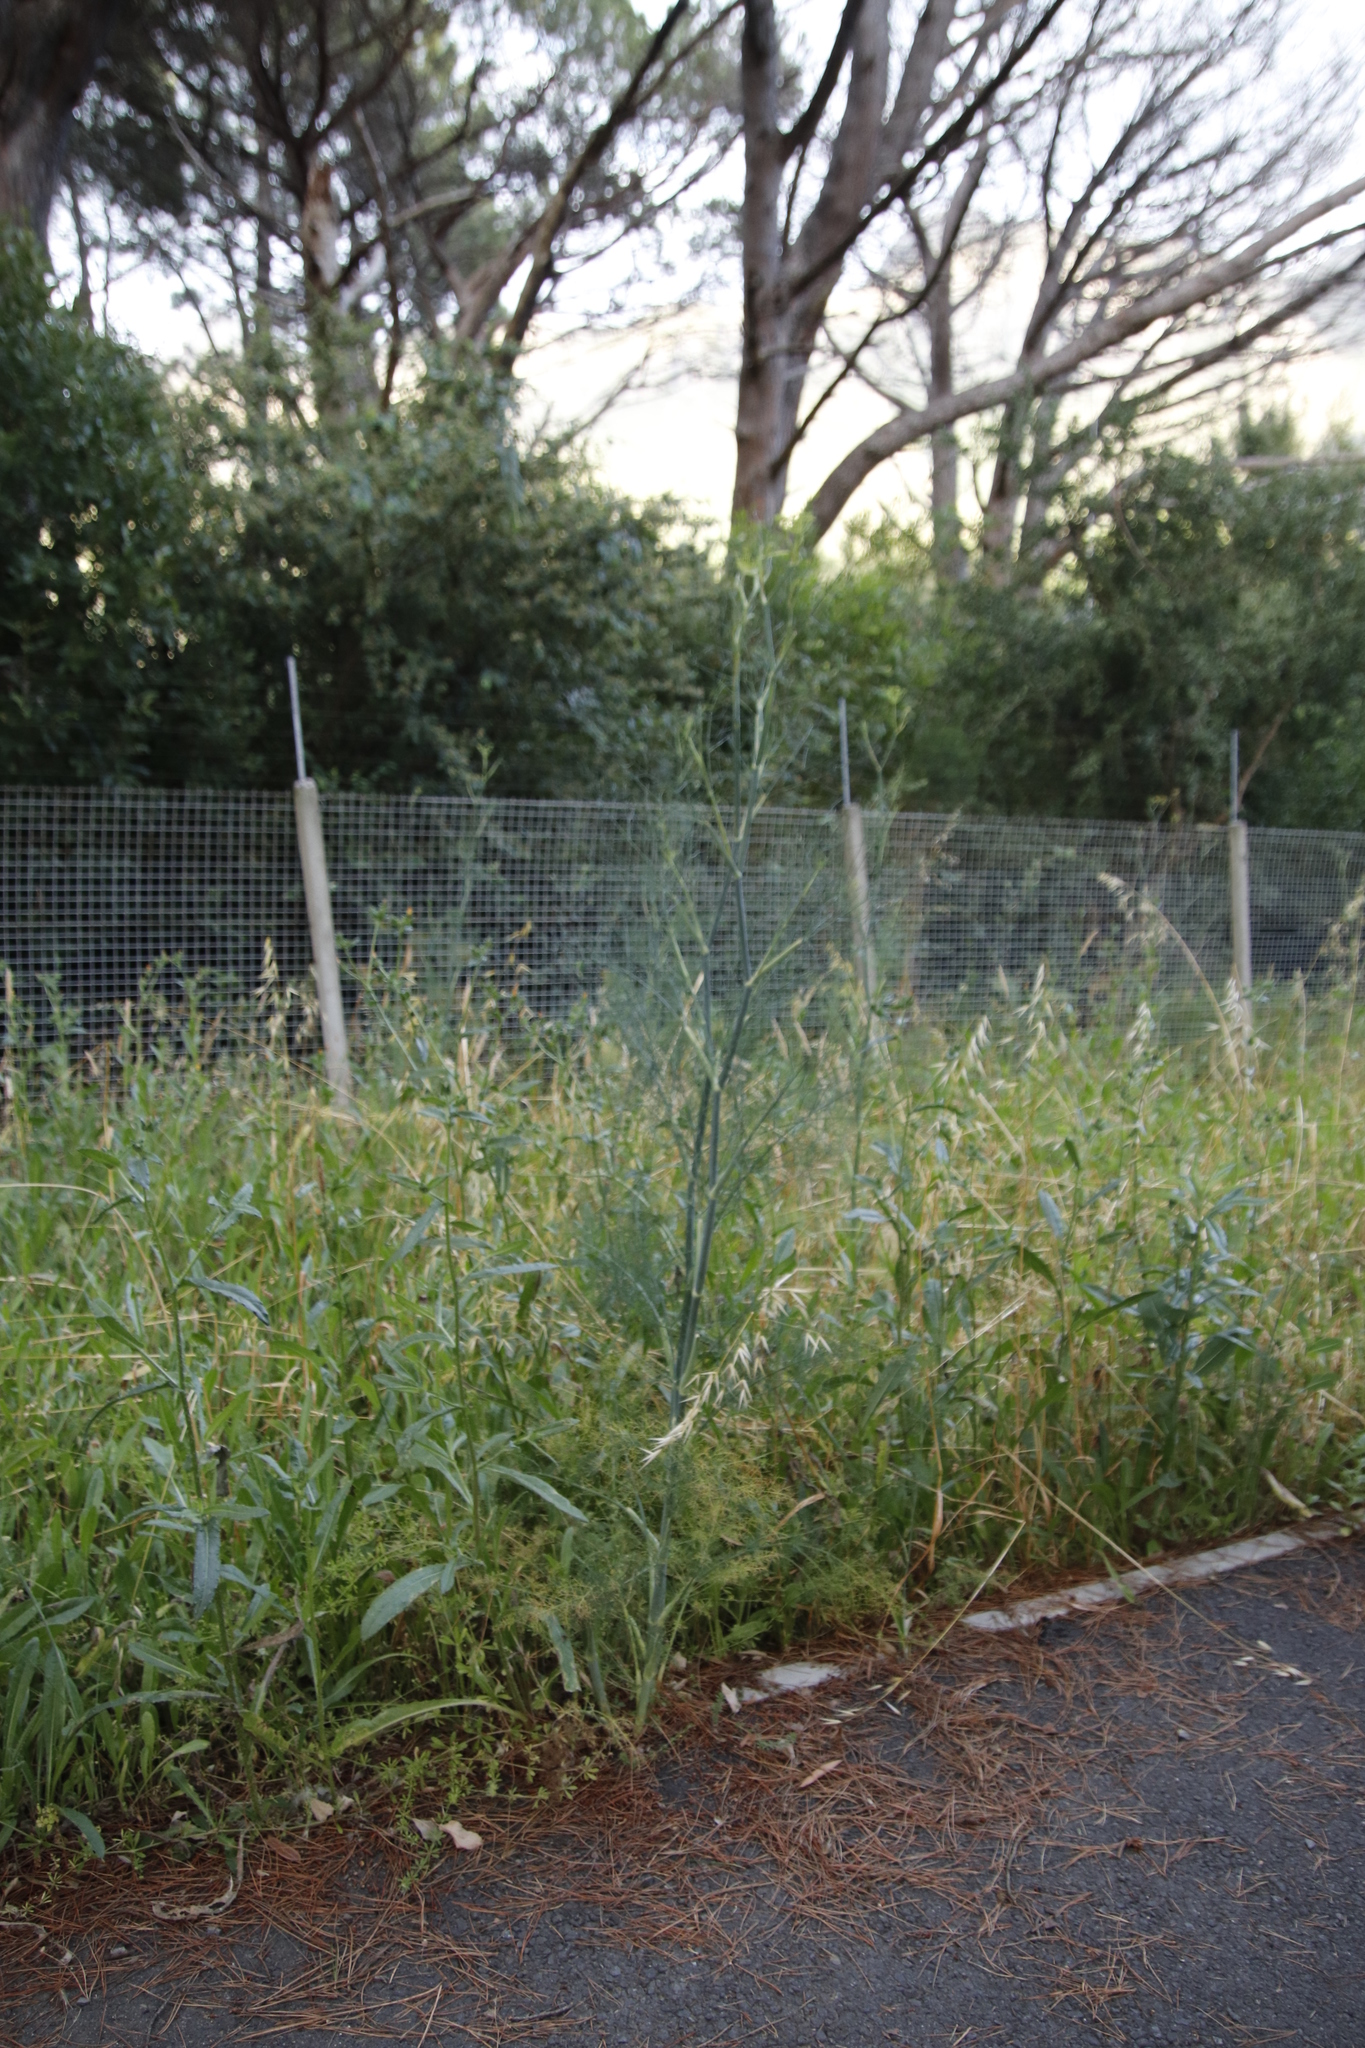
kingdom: Plantae
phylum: Tracheophyta
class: Magnoliopsida
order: Apiales
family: Apiaceae
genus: Foeniculum
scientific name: Foeniculum vulgare
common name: Fennel
